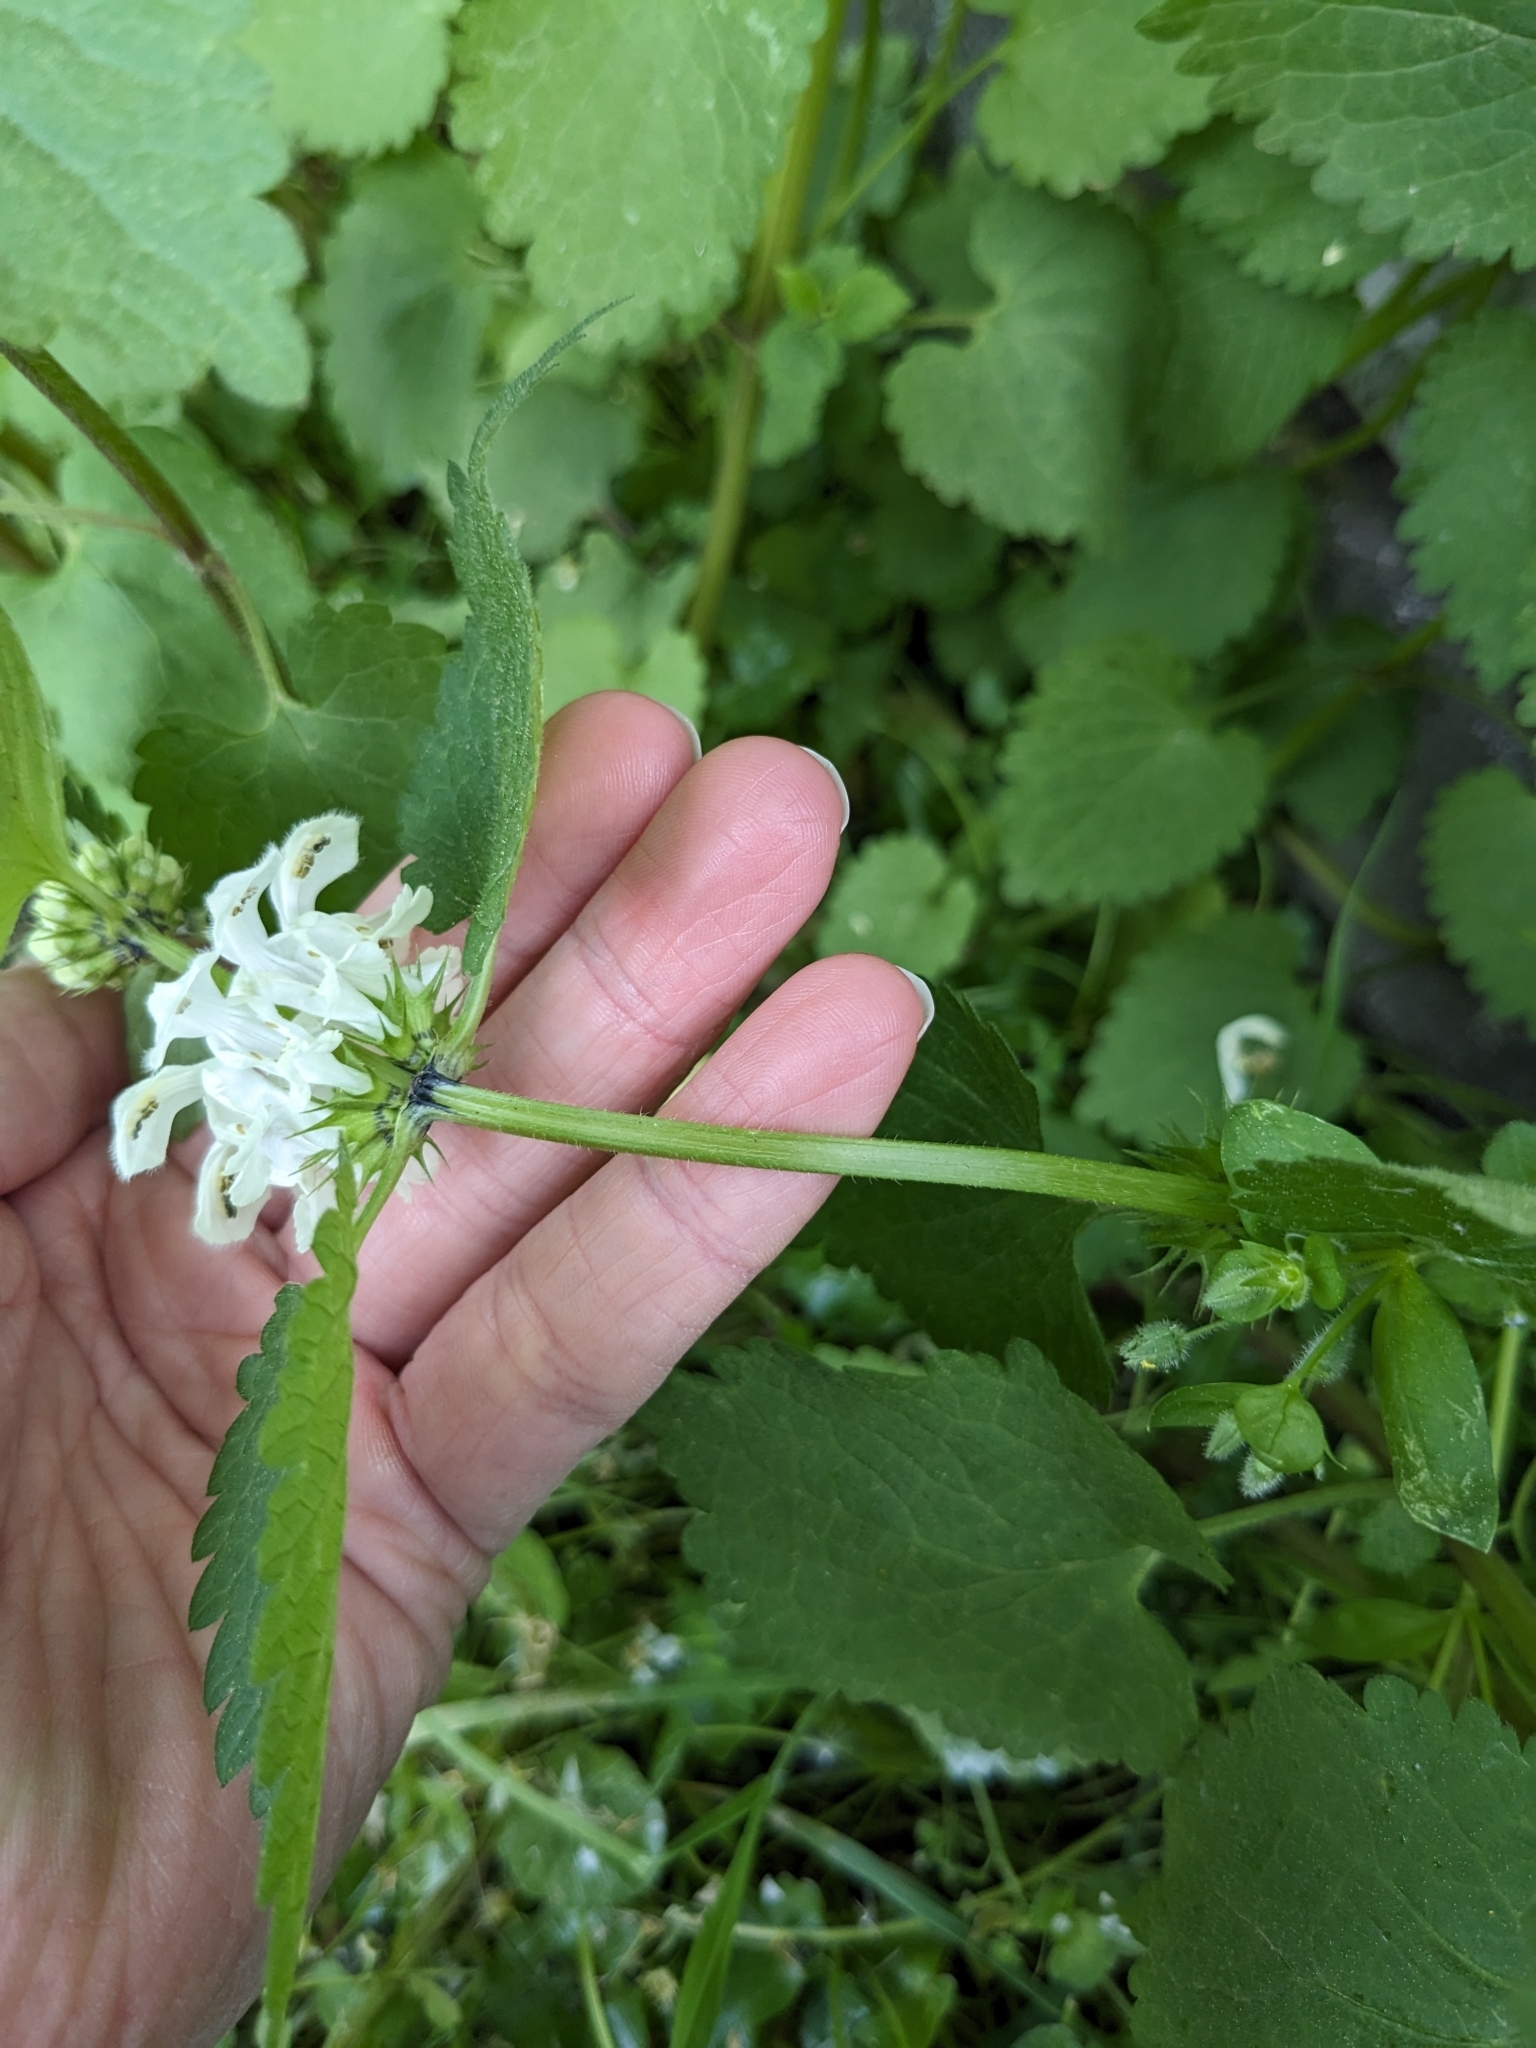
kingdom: Plantae
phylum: Tracheophyta
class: Magnoliopsida
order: Lamiales
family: Lamiaceae
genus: Lamium
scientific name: Lamium album
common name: White dead-nettle
